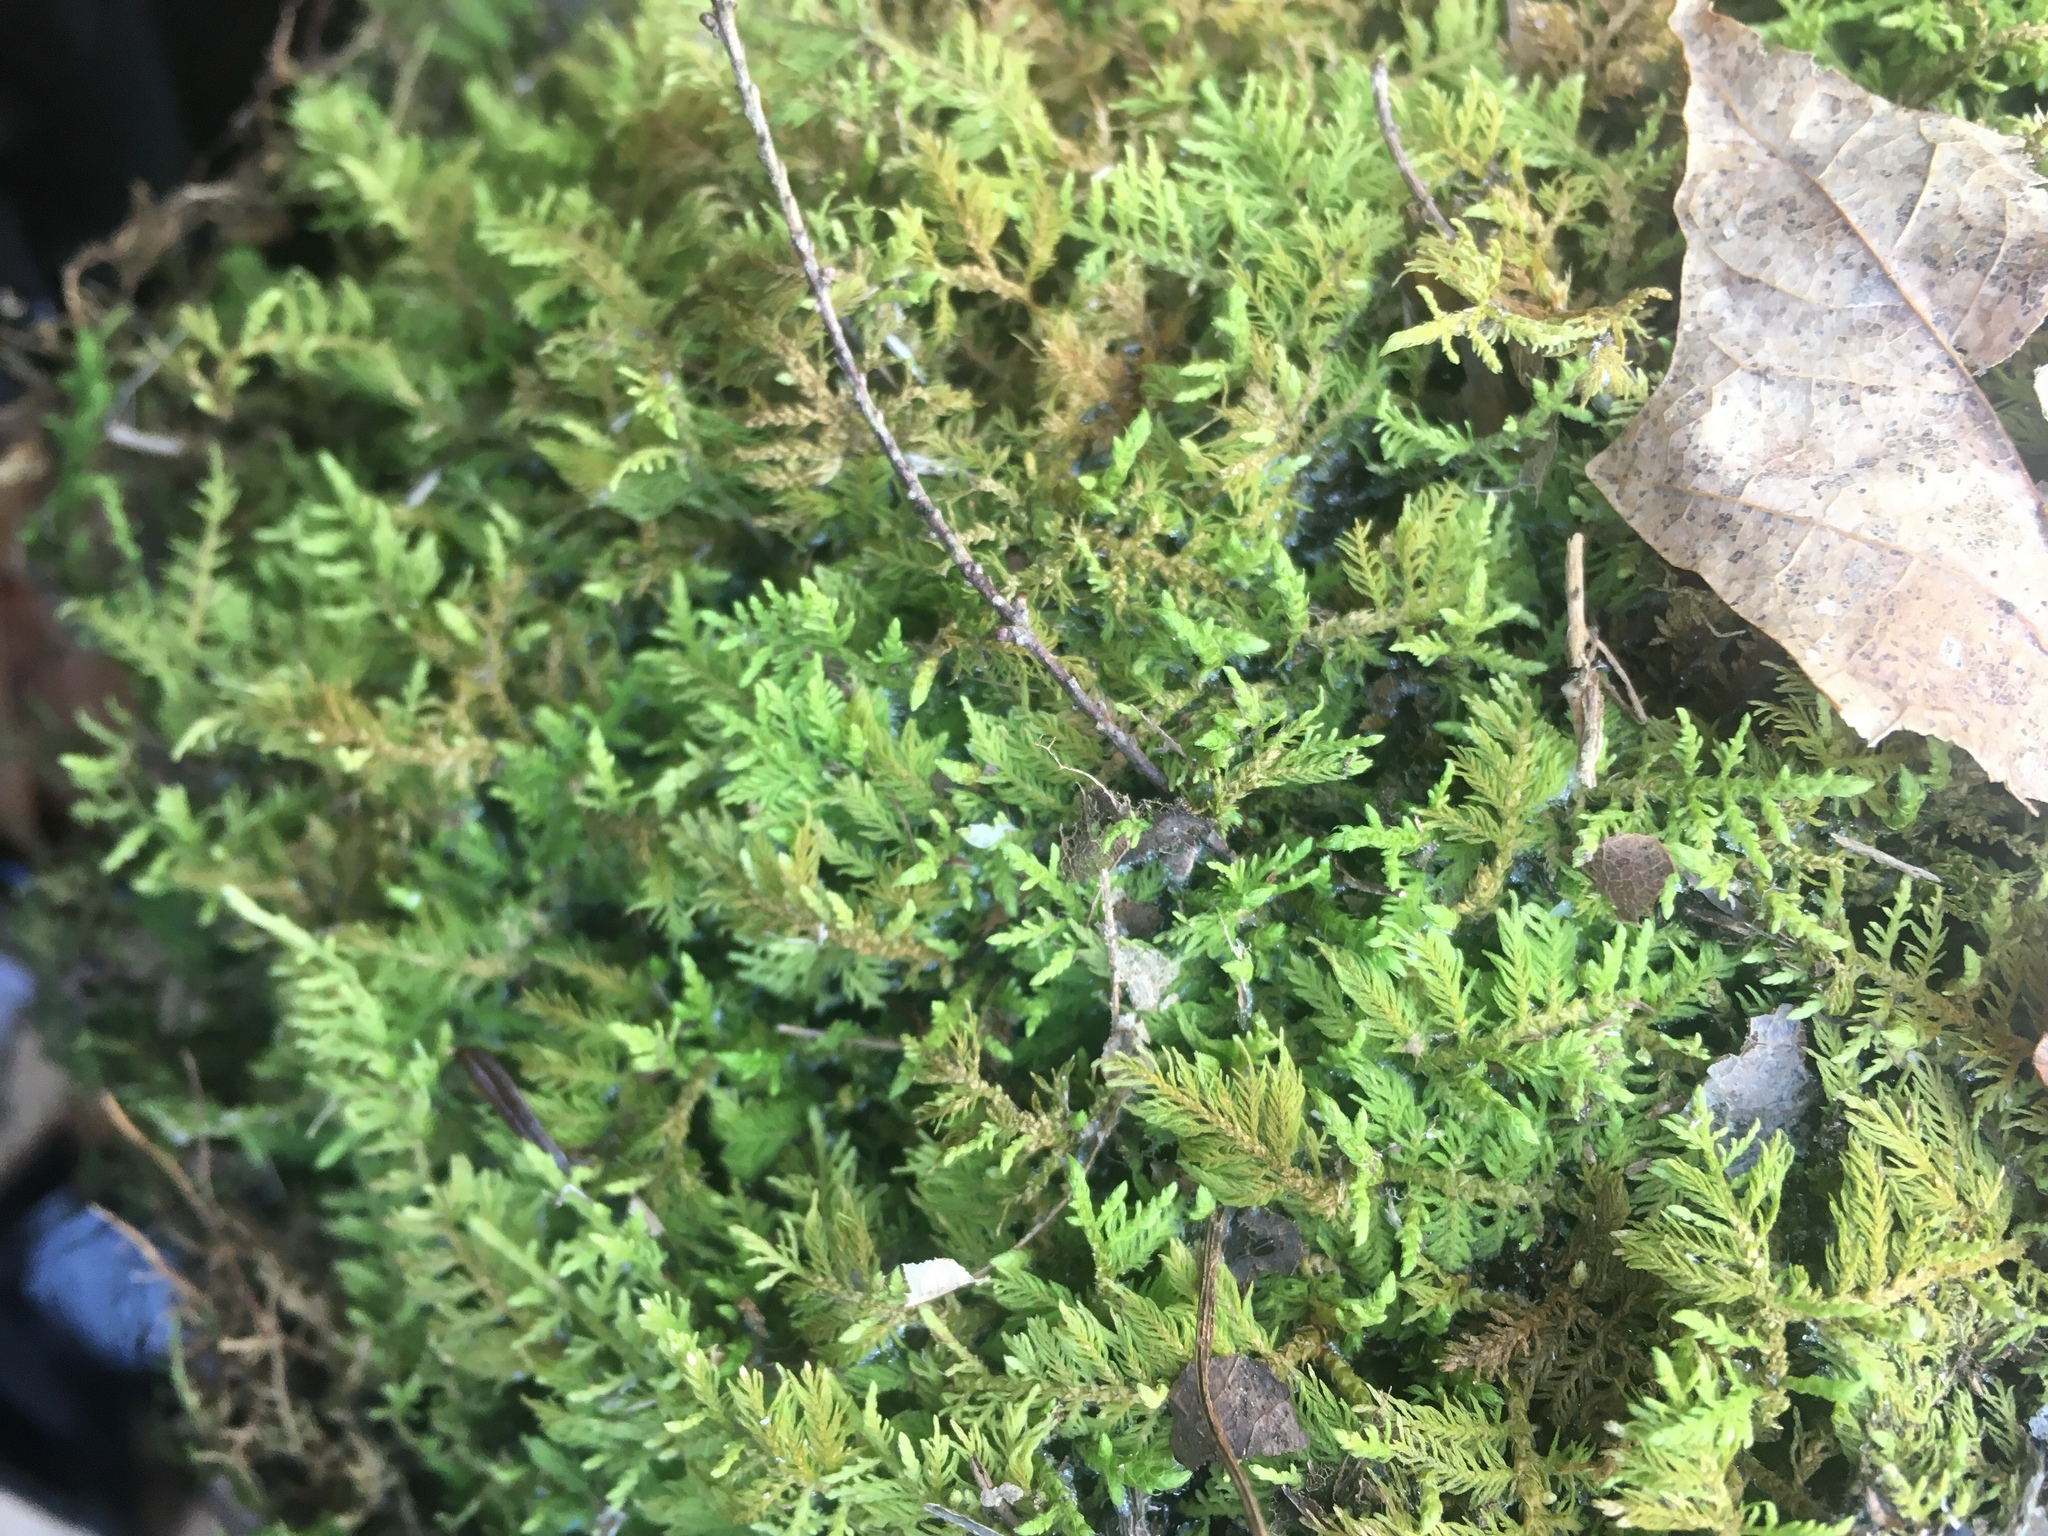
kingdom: Plantae
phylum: Bryophyta
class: Bryopsida
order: Hypnales
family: Thuidiaceae
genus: Thuidium
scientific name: Thuidium delicatulum
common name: Delicate fern moss
